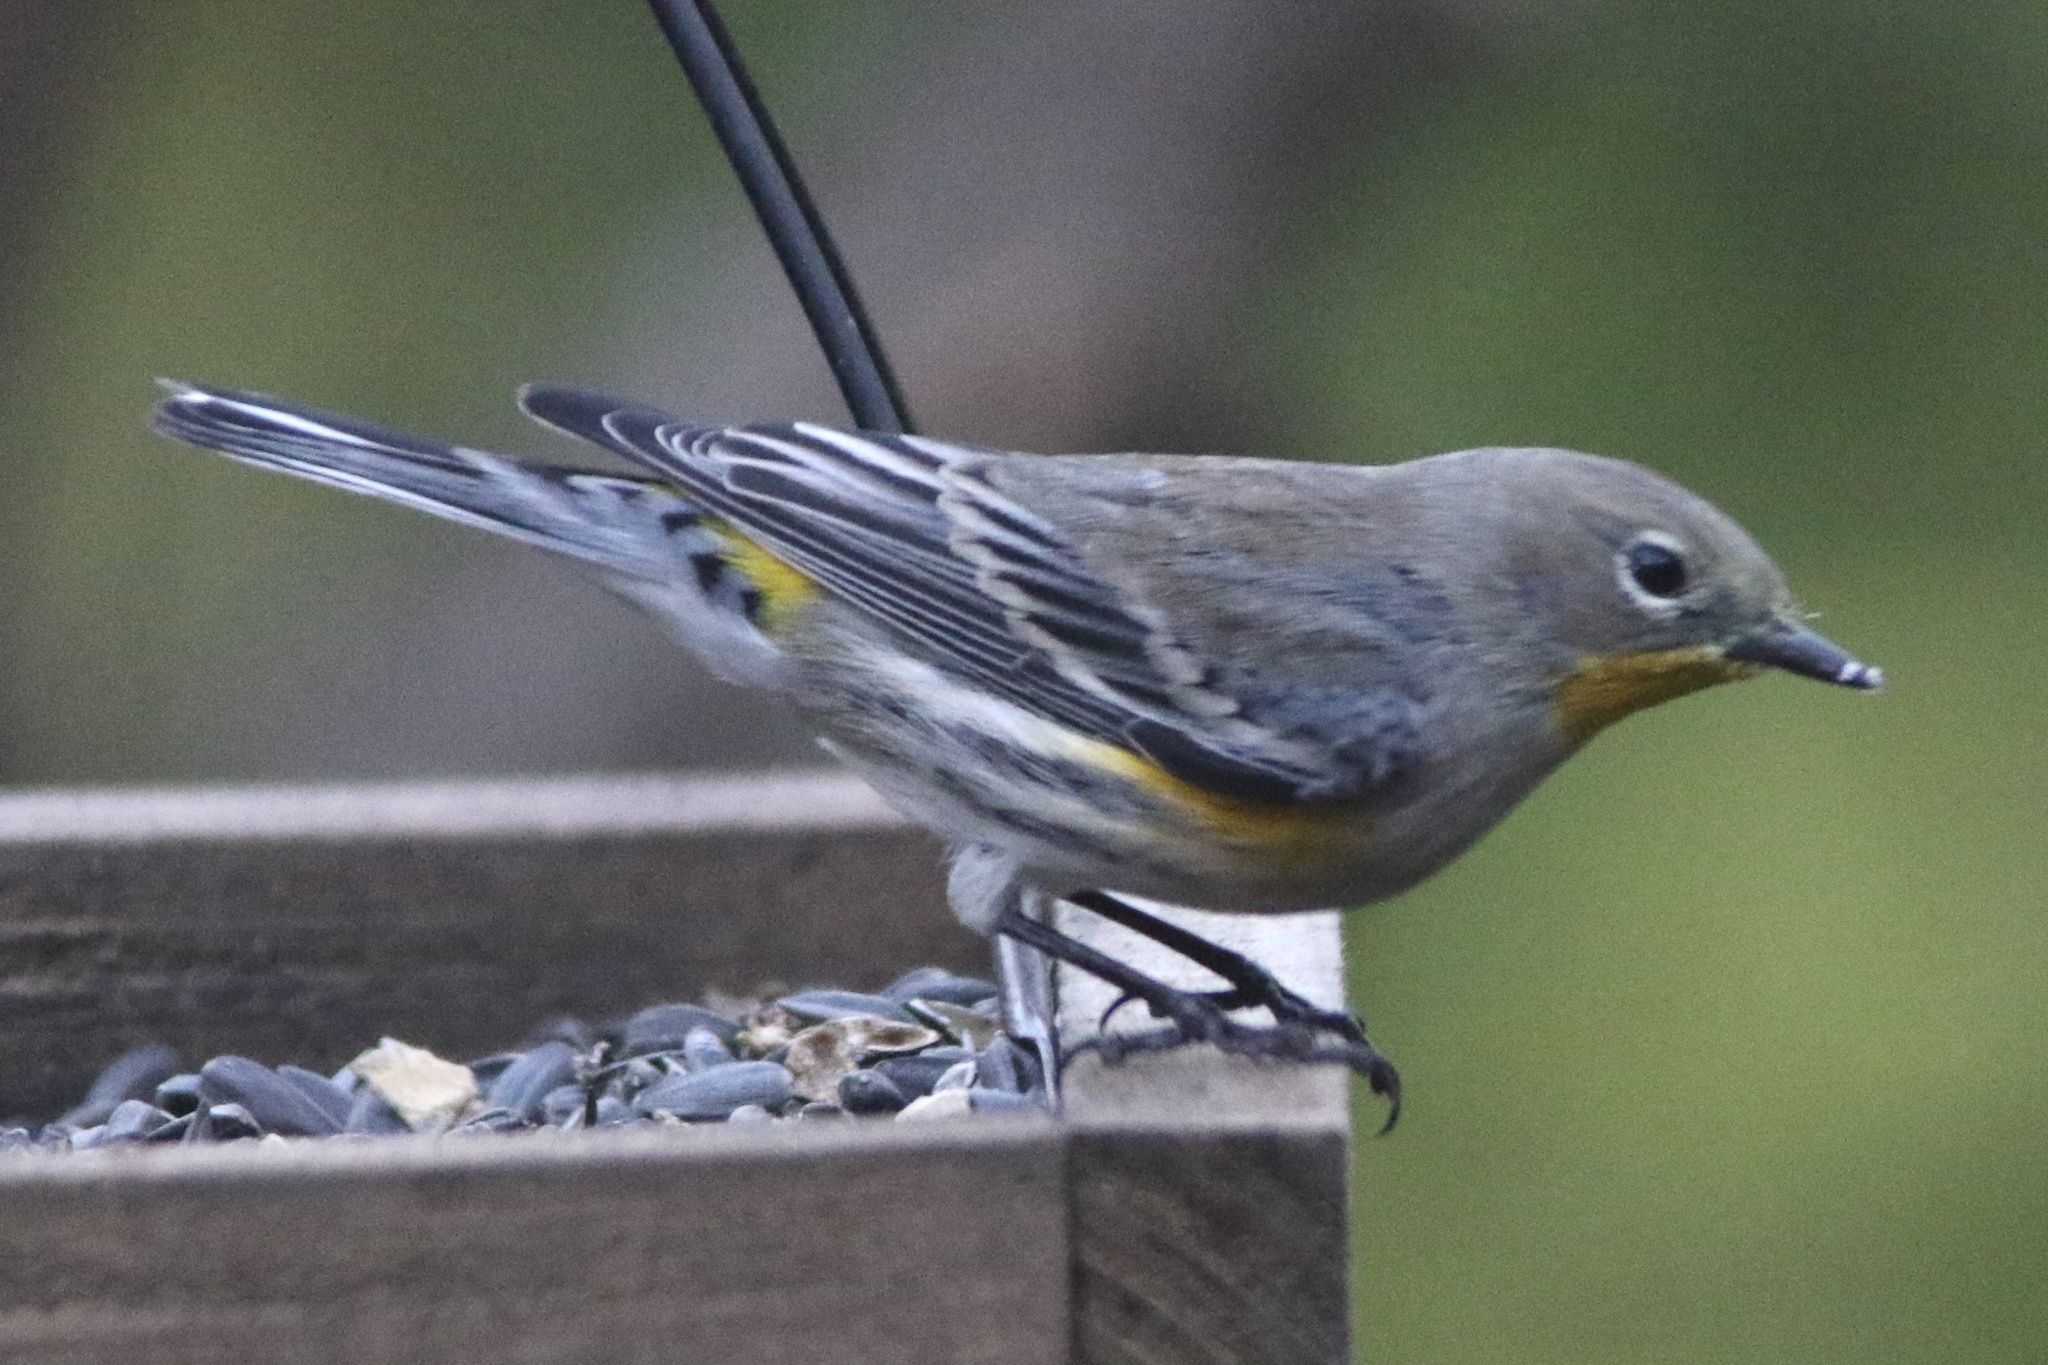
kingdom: Animalia
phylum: Chordata
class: Aves
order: Passeriformes
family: Parulidae
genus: Setophaga
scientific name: Setophaga coronata
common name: Myrtle warbler
